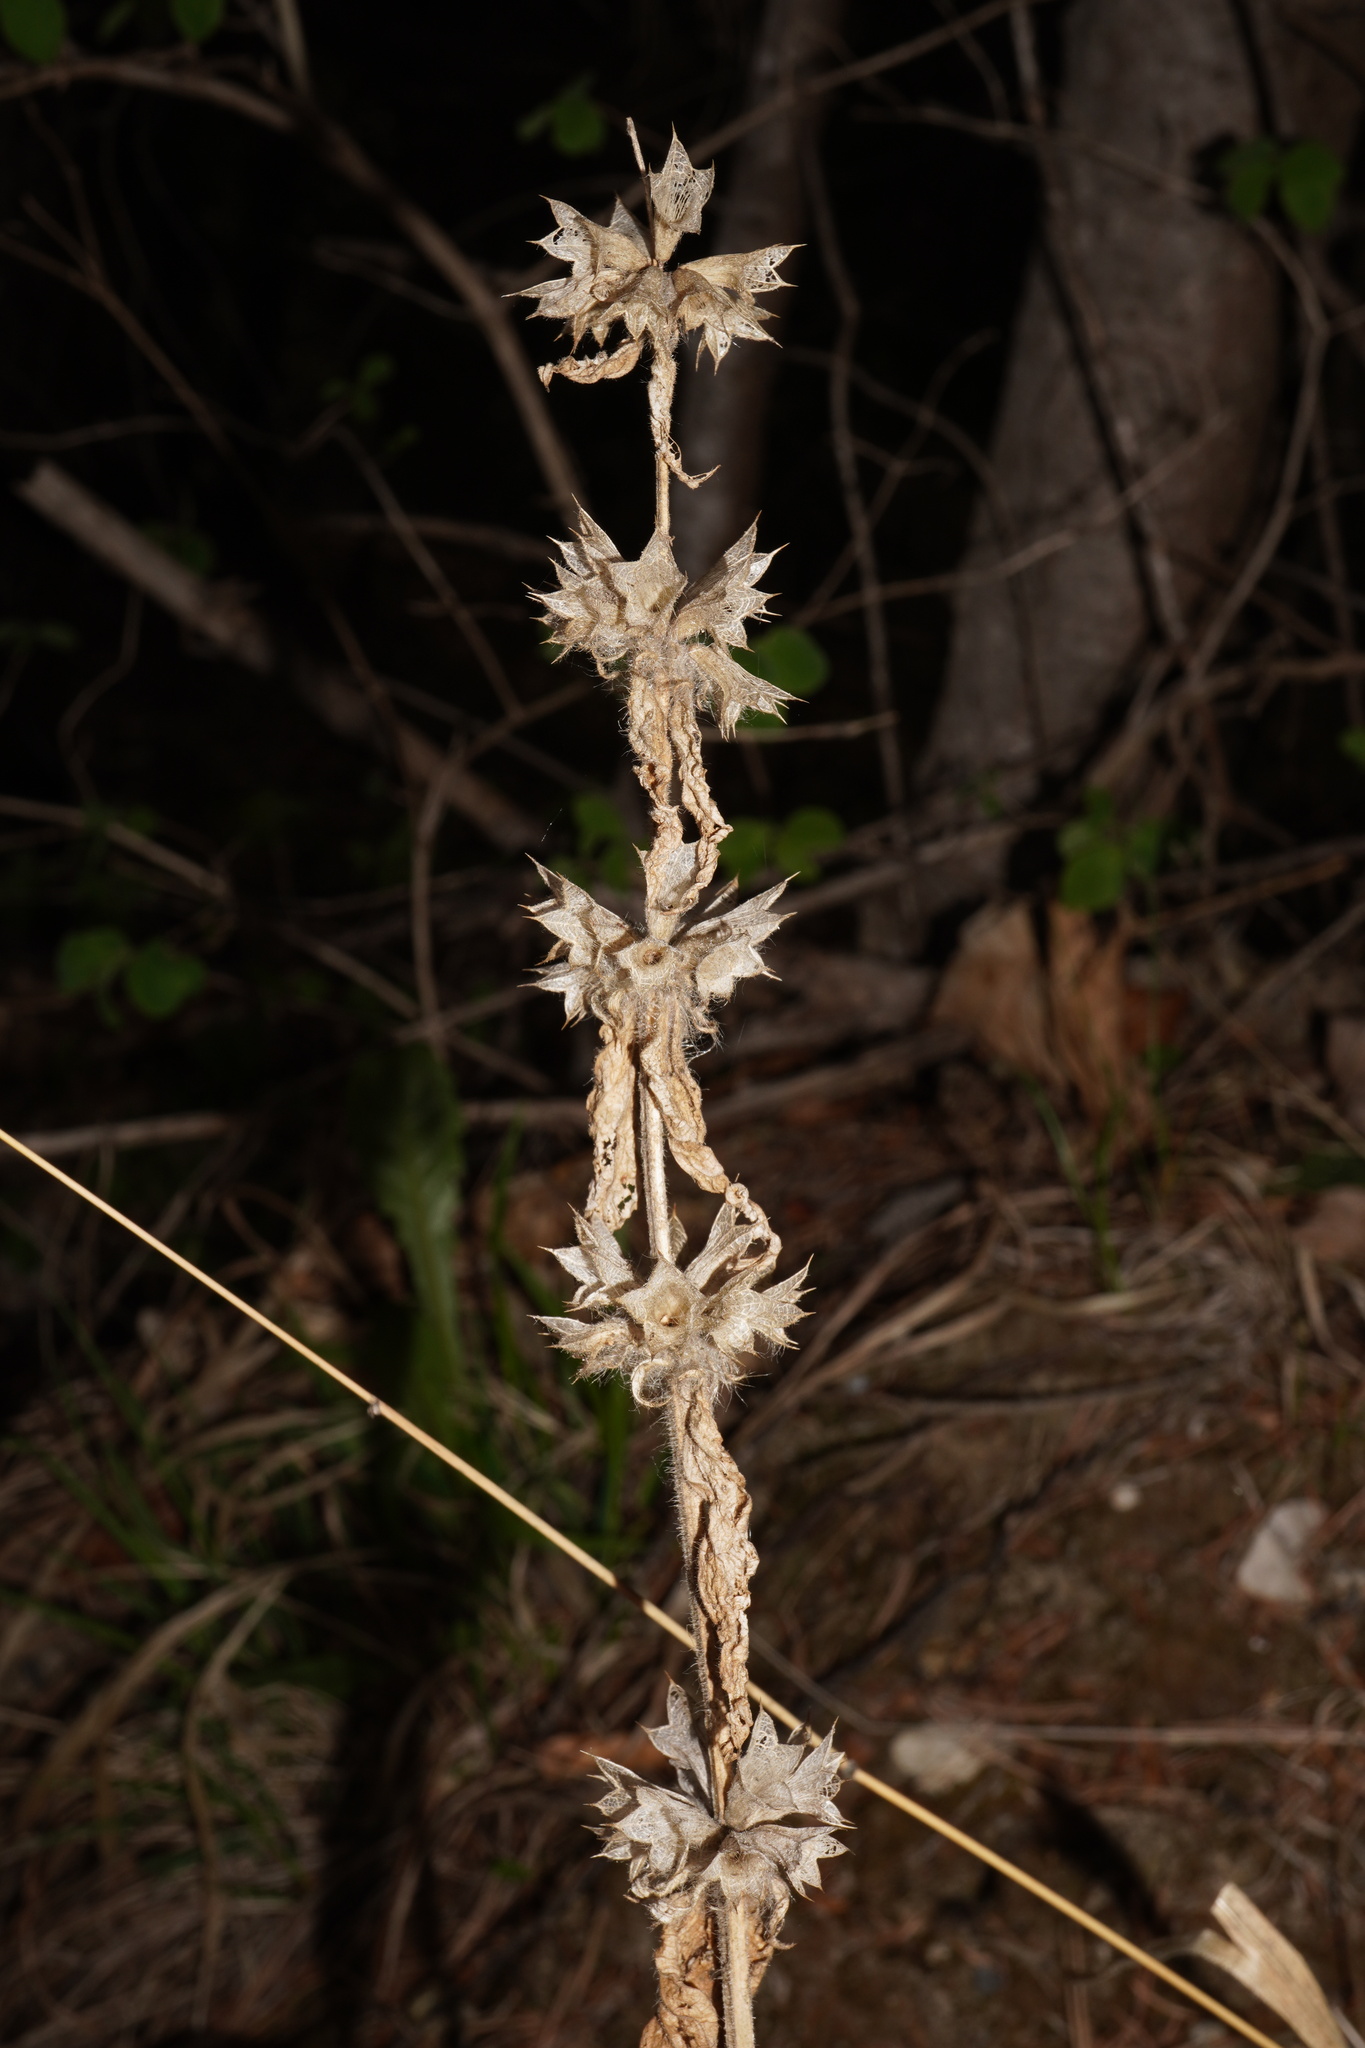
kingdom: Plantae
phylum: Tracheophyta
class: Magnoliopsida
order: Lamiales
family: Lamiaceae
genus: Stachys
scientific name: Stachys alpina
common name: Limestone woundwort
